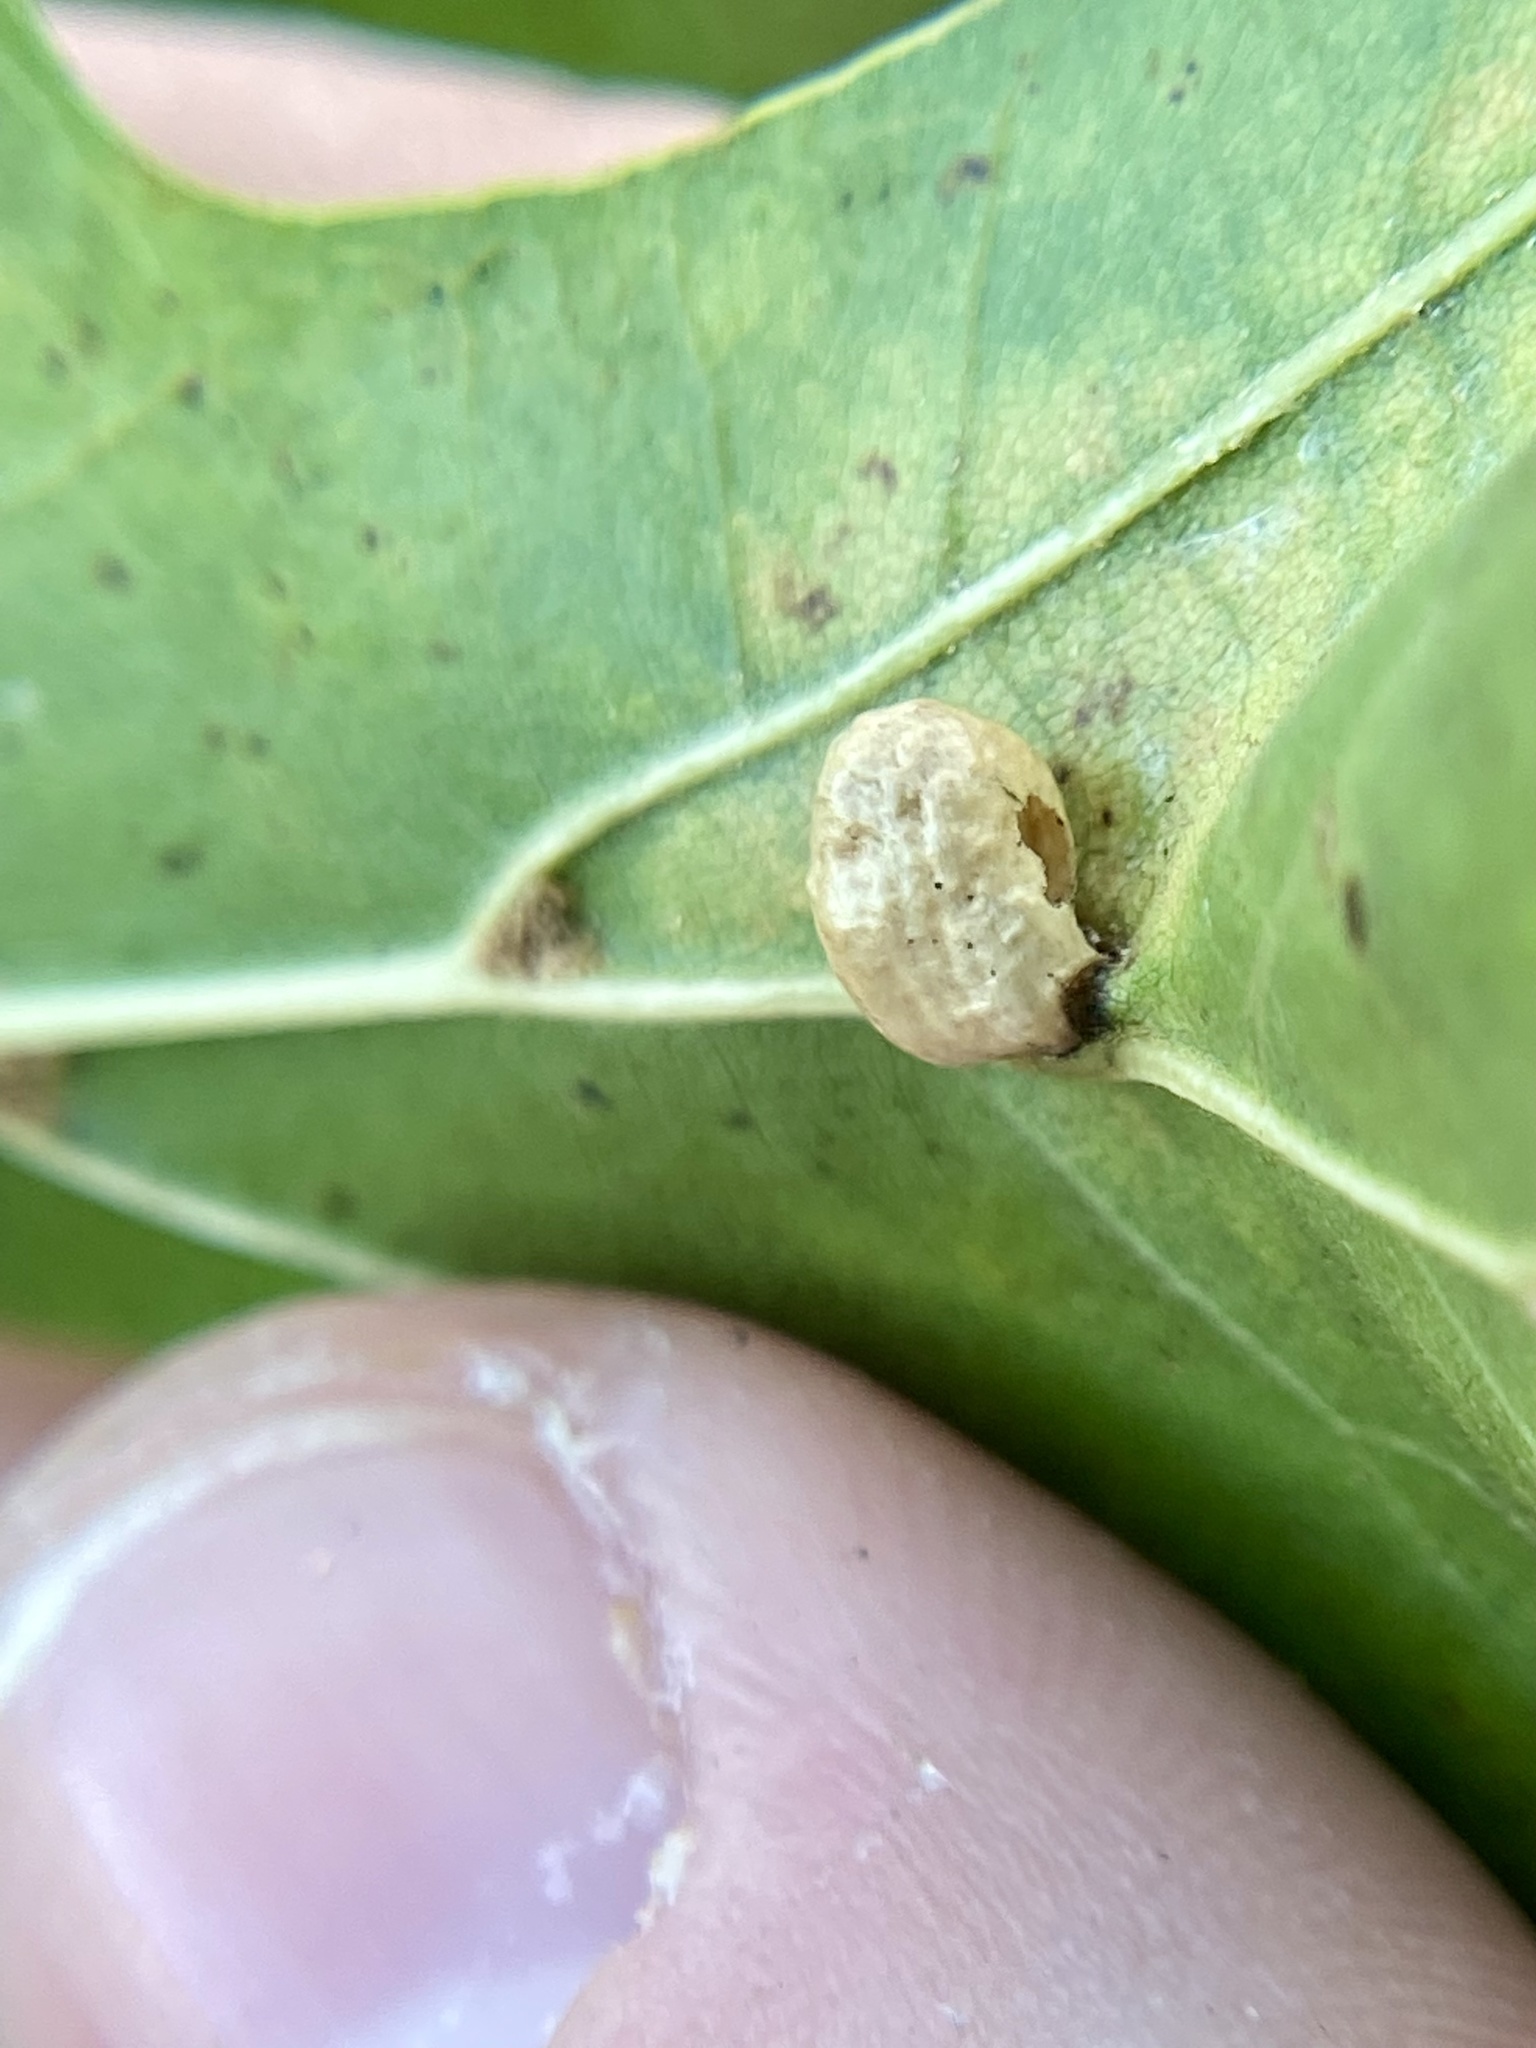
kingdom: Animalia
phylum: Arthropoda
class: Insecta
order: Diptera
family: Cecidomyiidae
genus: Macrodiplosis
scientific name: Macrodiplosis majalis
